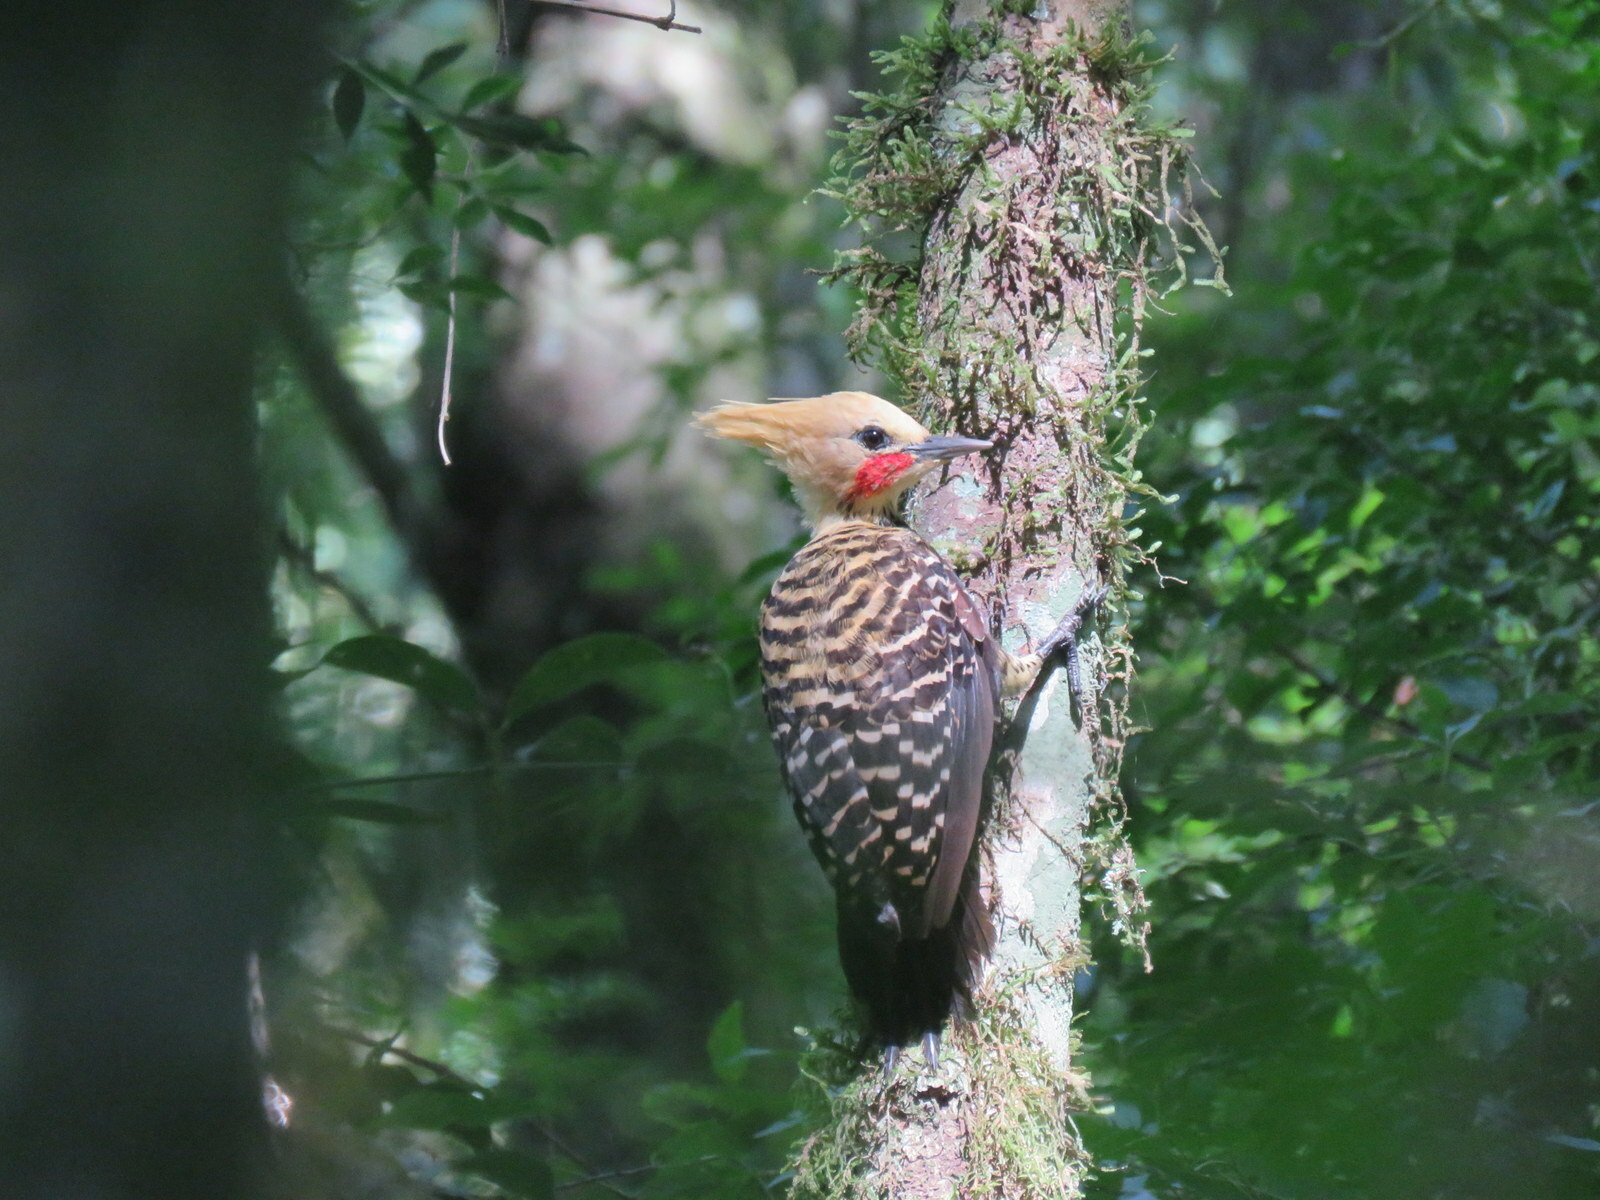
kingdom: Animalia
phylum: Chordata
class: Aves
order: Piciformes
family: Picidae
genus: Celeus
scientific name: Celeus flavescens
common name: Blond-crested woodpecker
